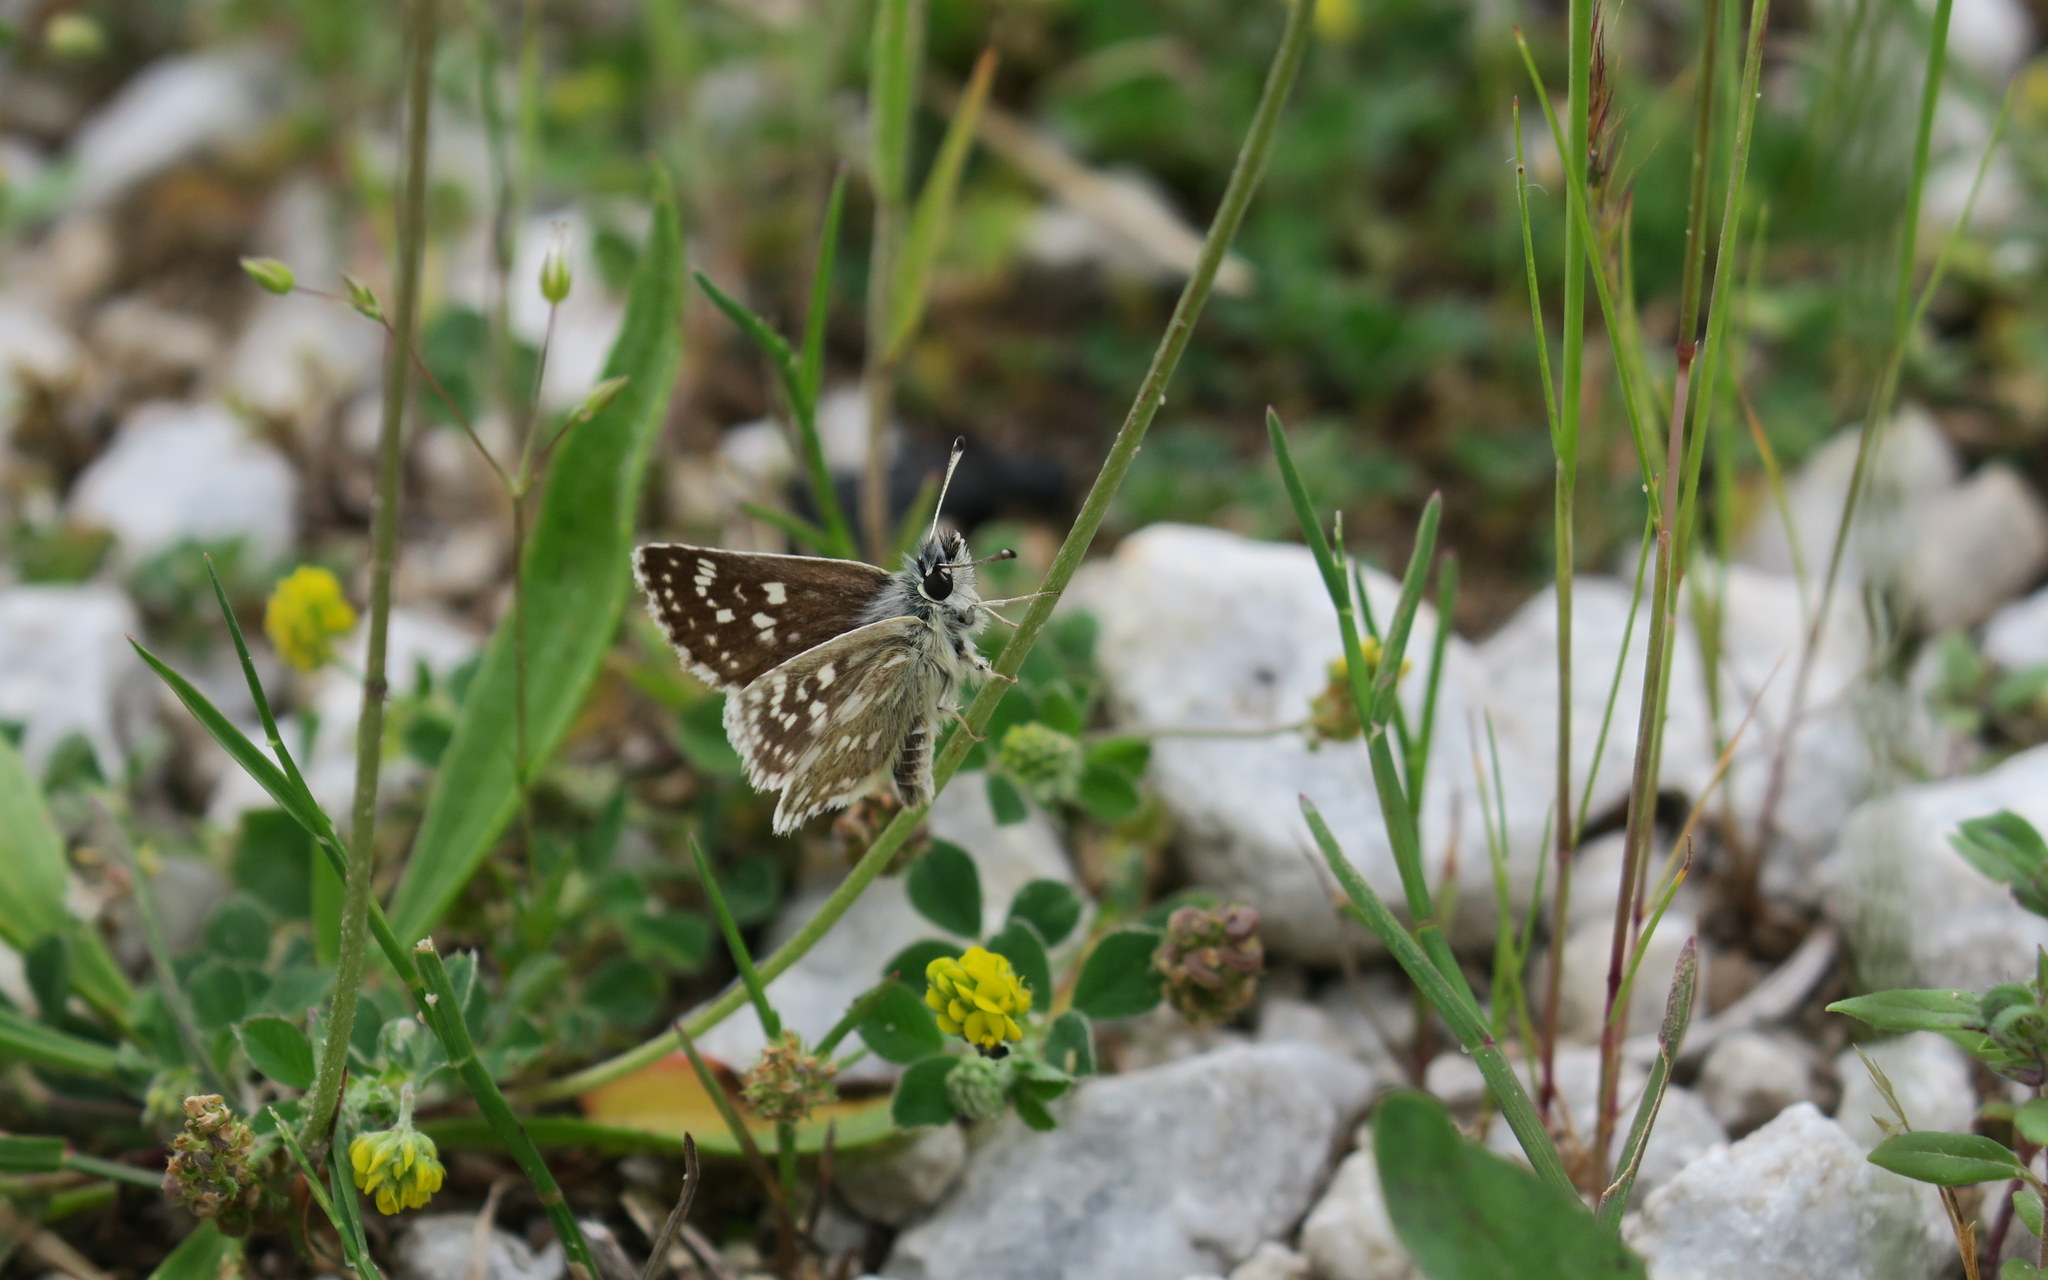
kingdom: Animalia
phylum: Arthropoda
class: Insecta
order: Lepidoptera
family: Hesperiidae
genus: Spialia
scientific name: Spialia sertorius
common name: Red underwing skipper
